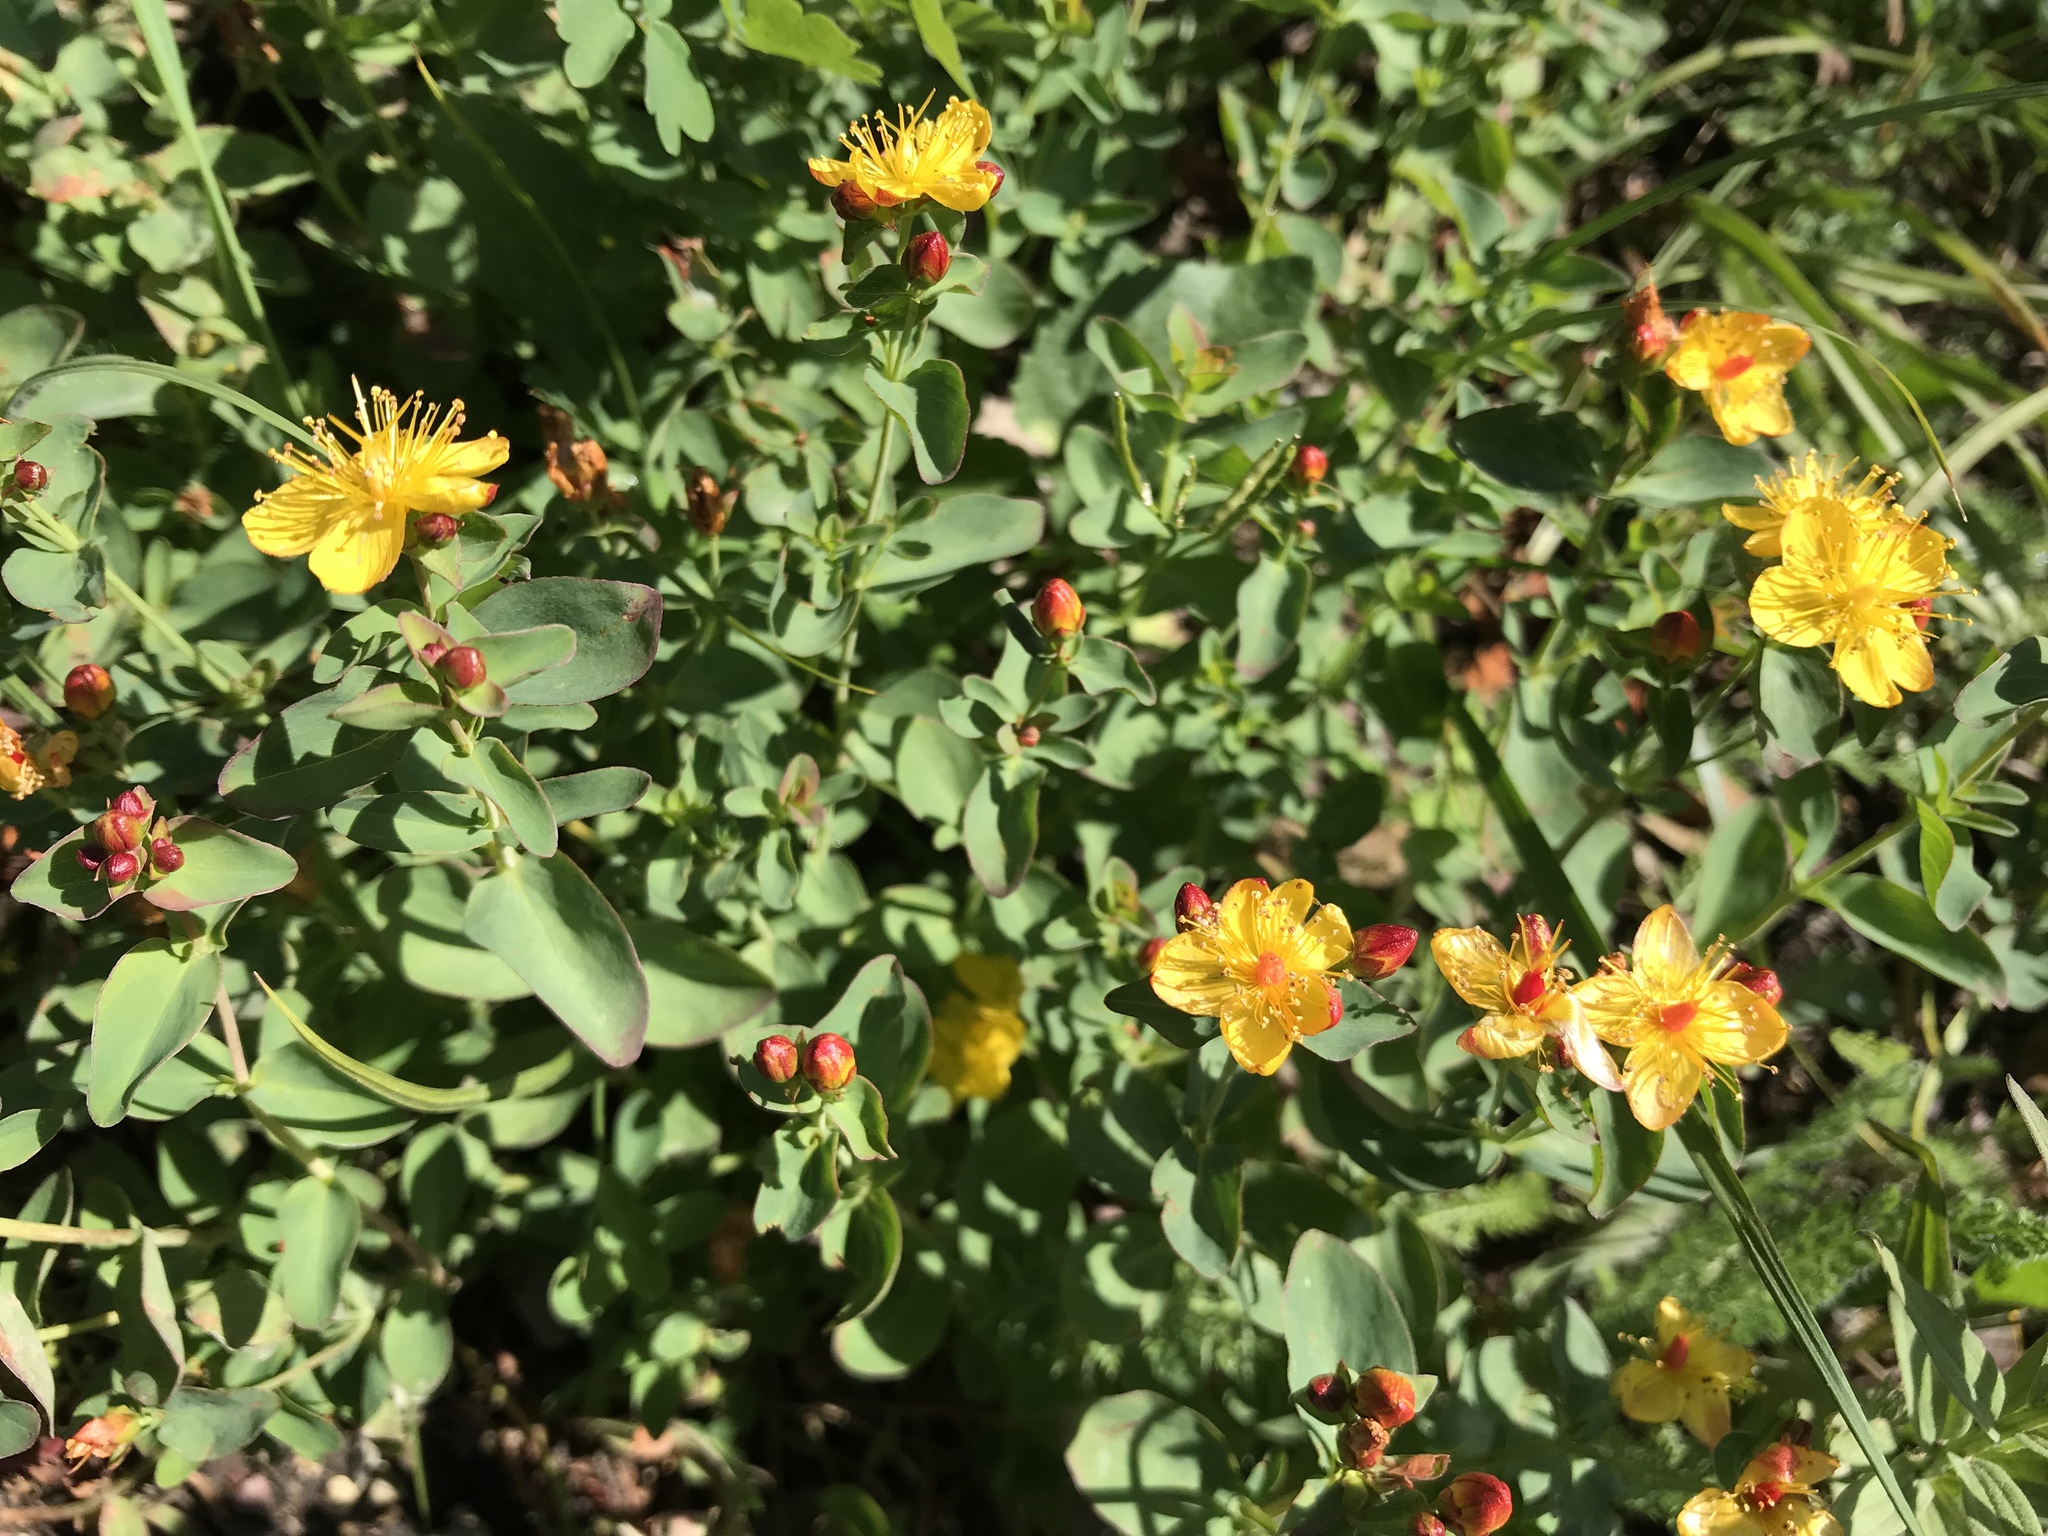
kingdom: Plantae
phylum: Tracheophyta
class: Magnoliopsida
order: Malpighiales
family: Hypericaceae
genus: Hypericum
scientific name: Hypericum scouleri
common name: Scouler's st. john's-wort
